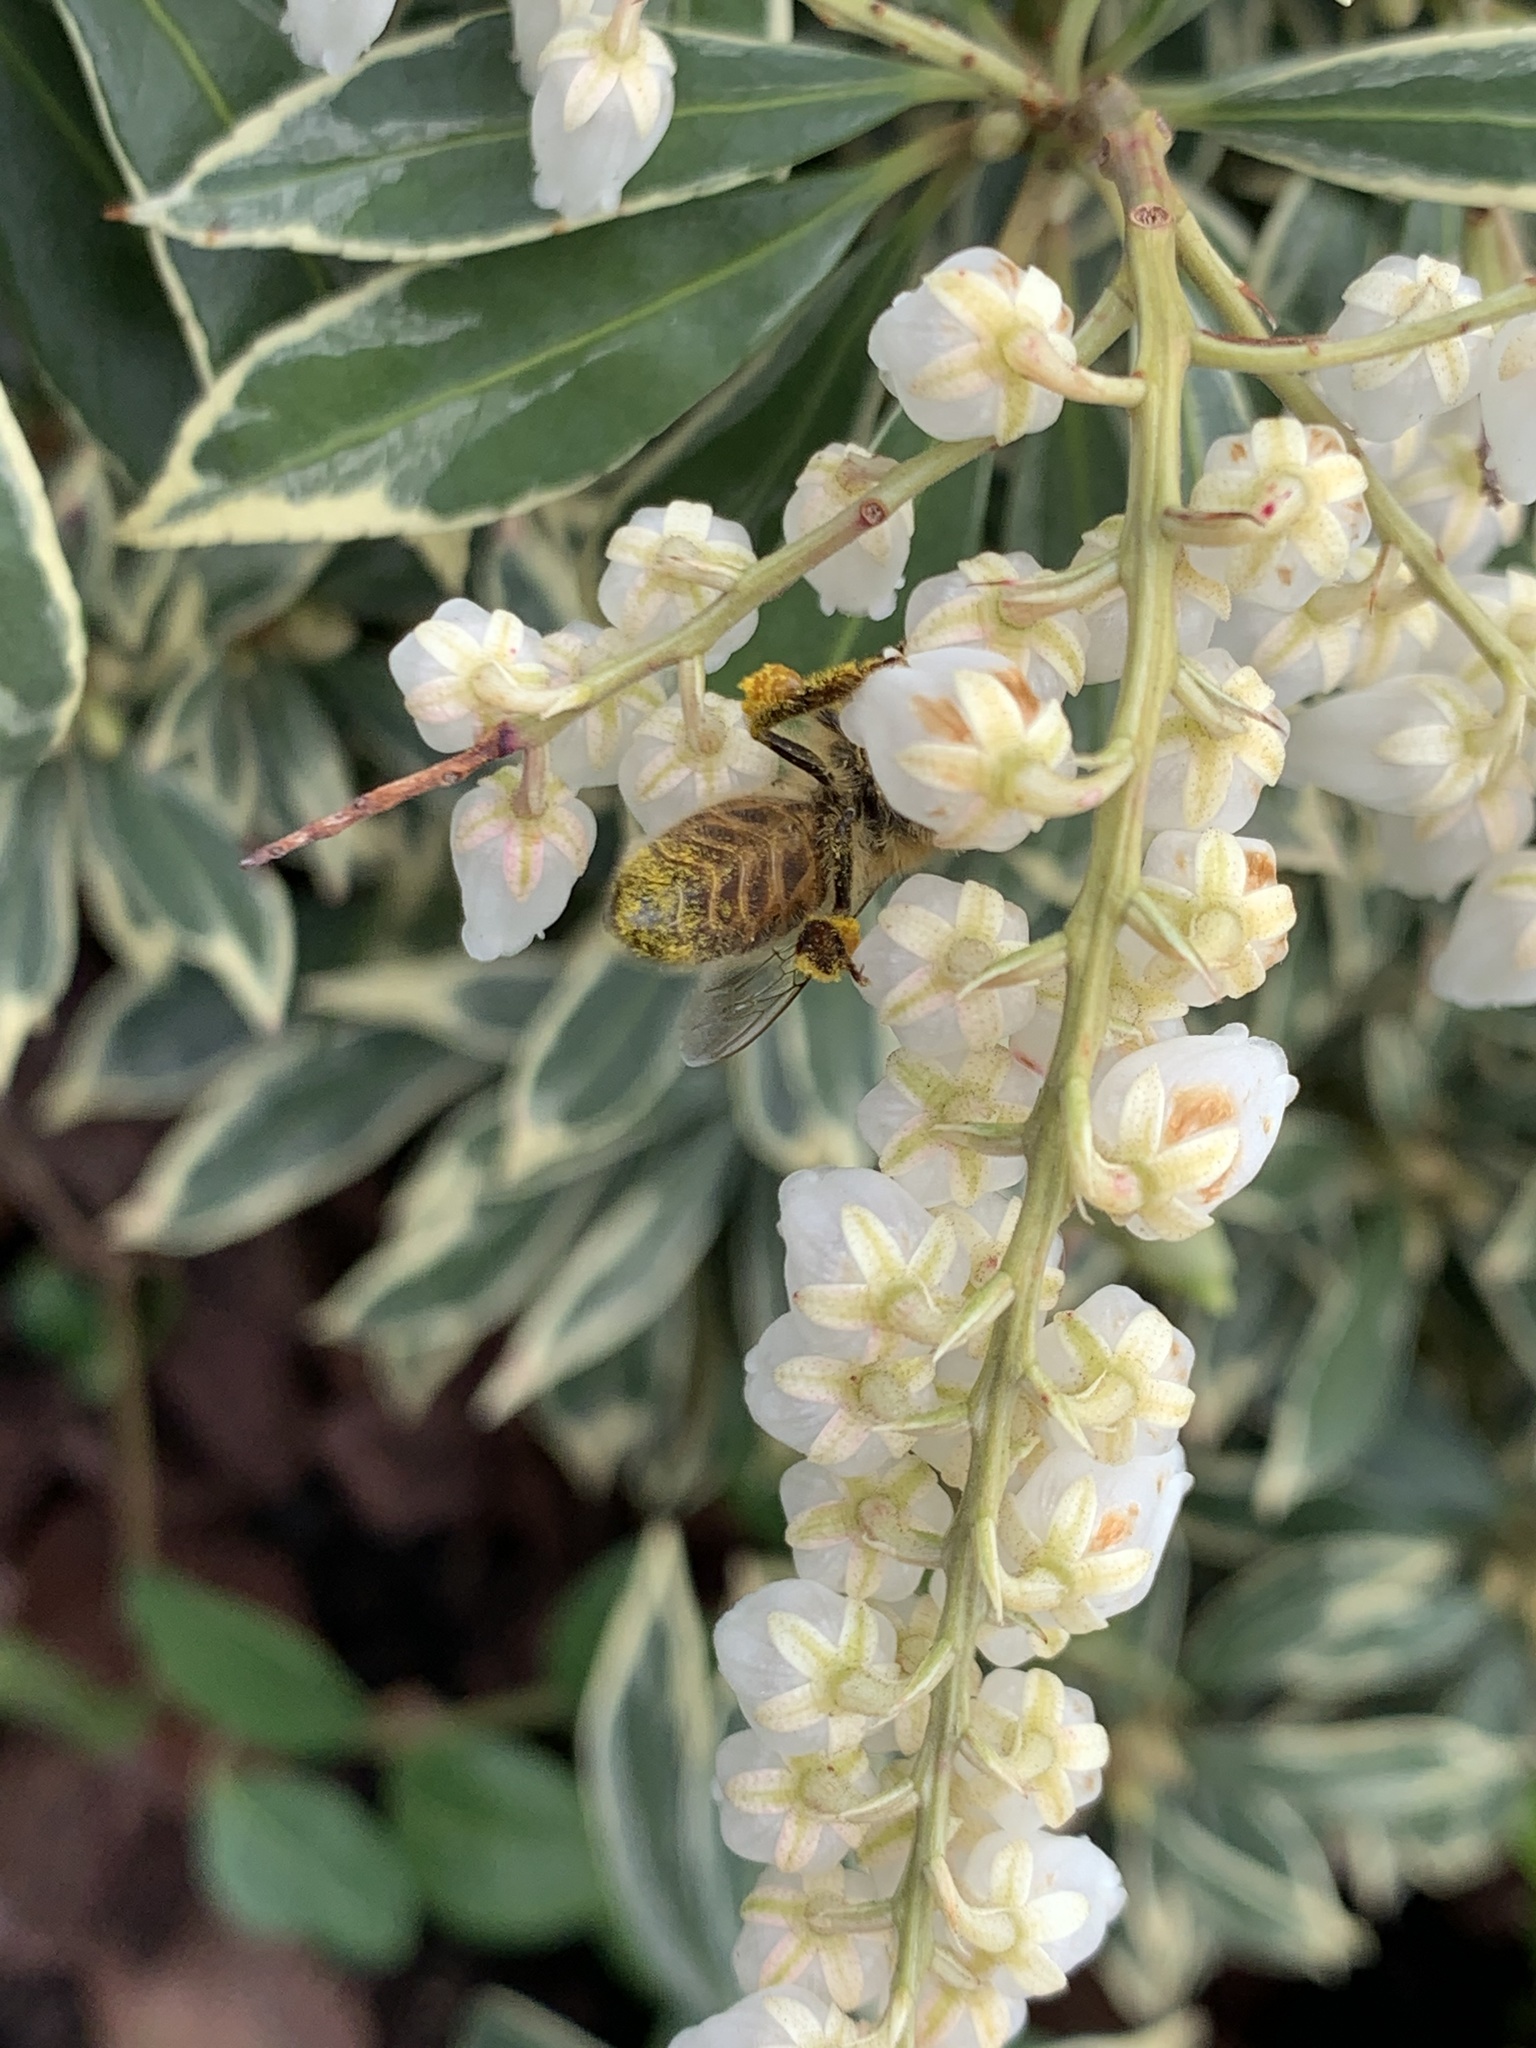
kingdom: Animalia
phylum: Arthropoda
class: Insecta
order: Hymenoptera
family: Apidae
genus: Apis
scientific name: Apis mellifera
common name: Honey bee
